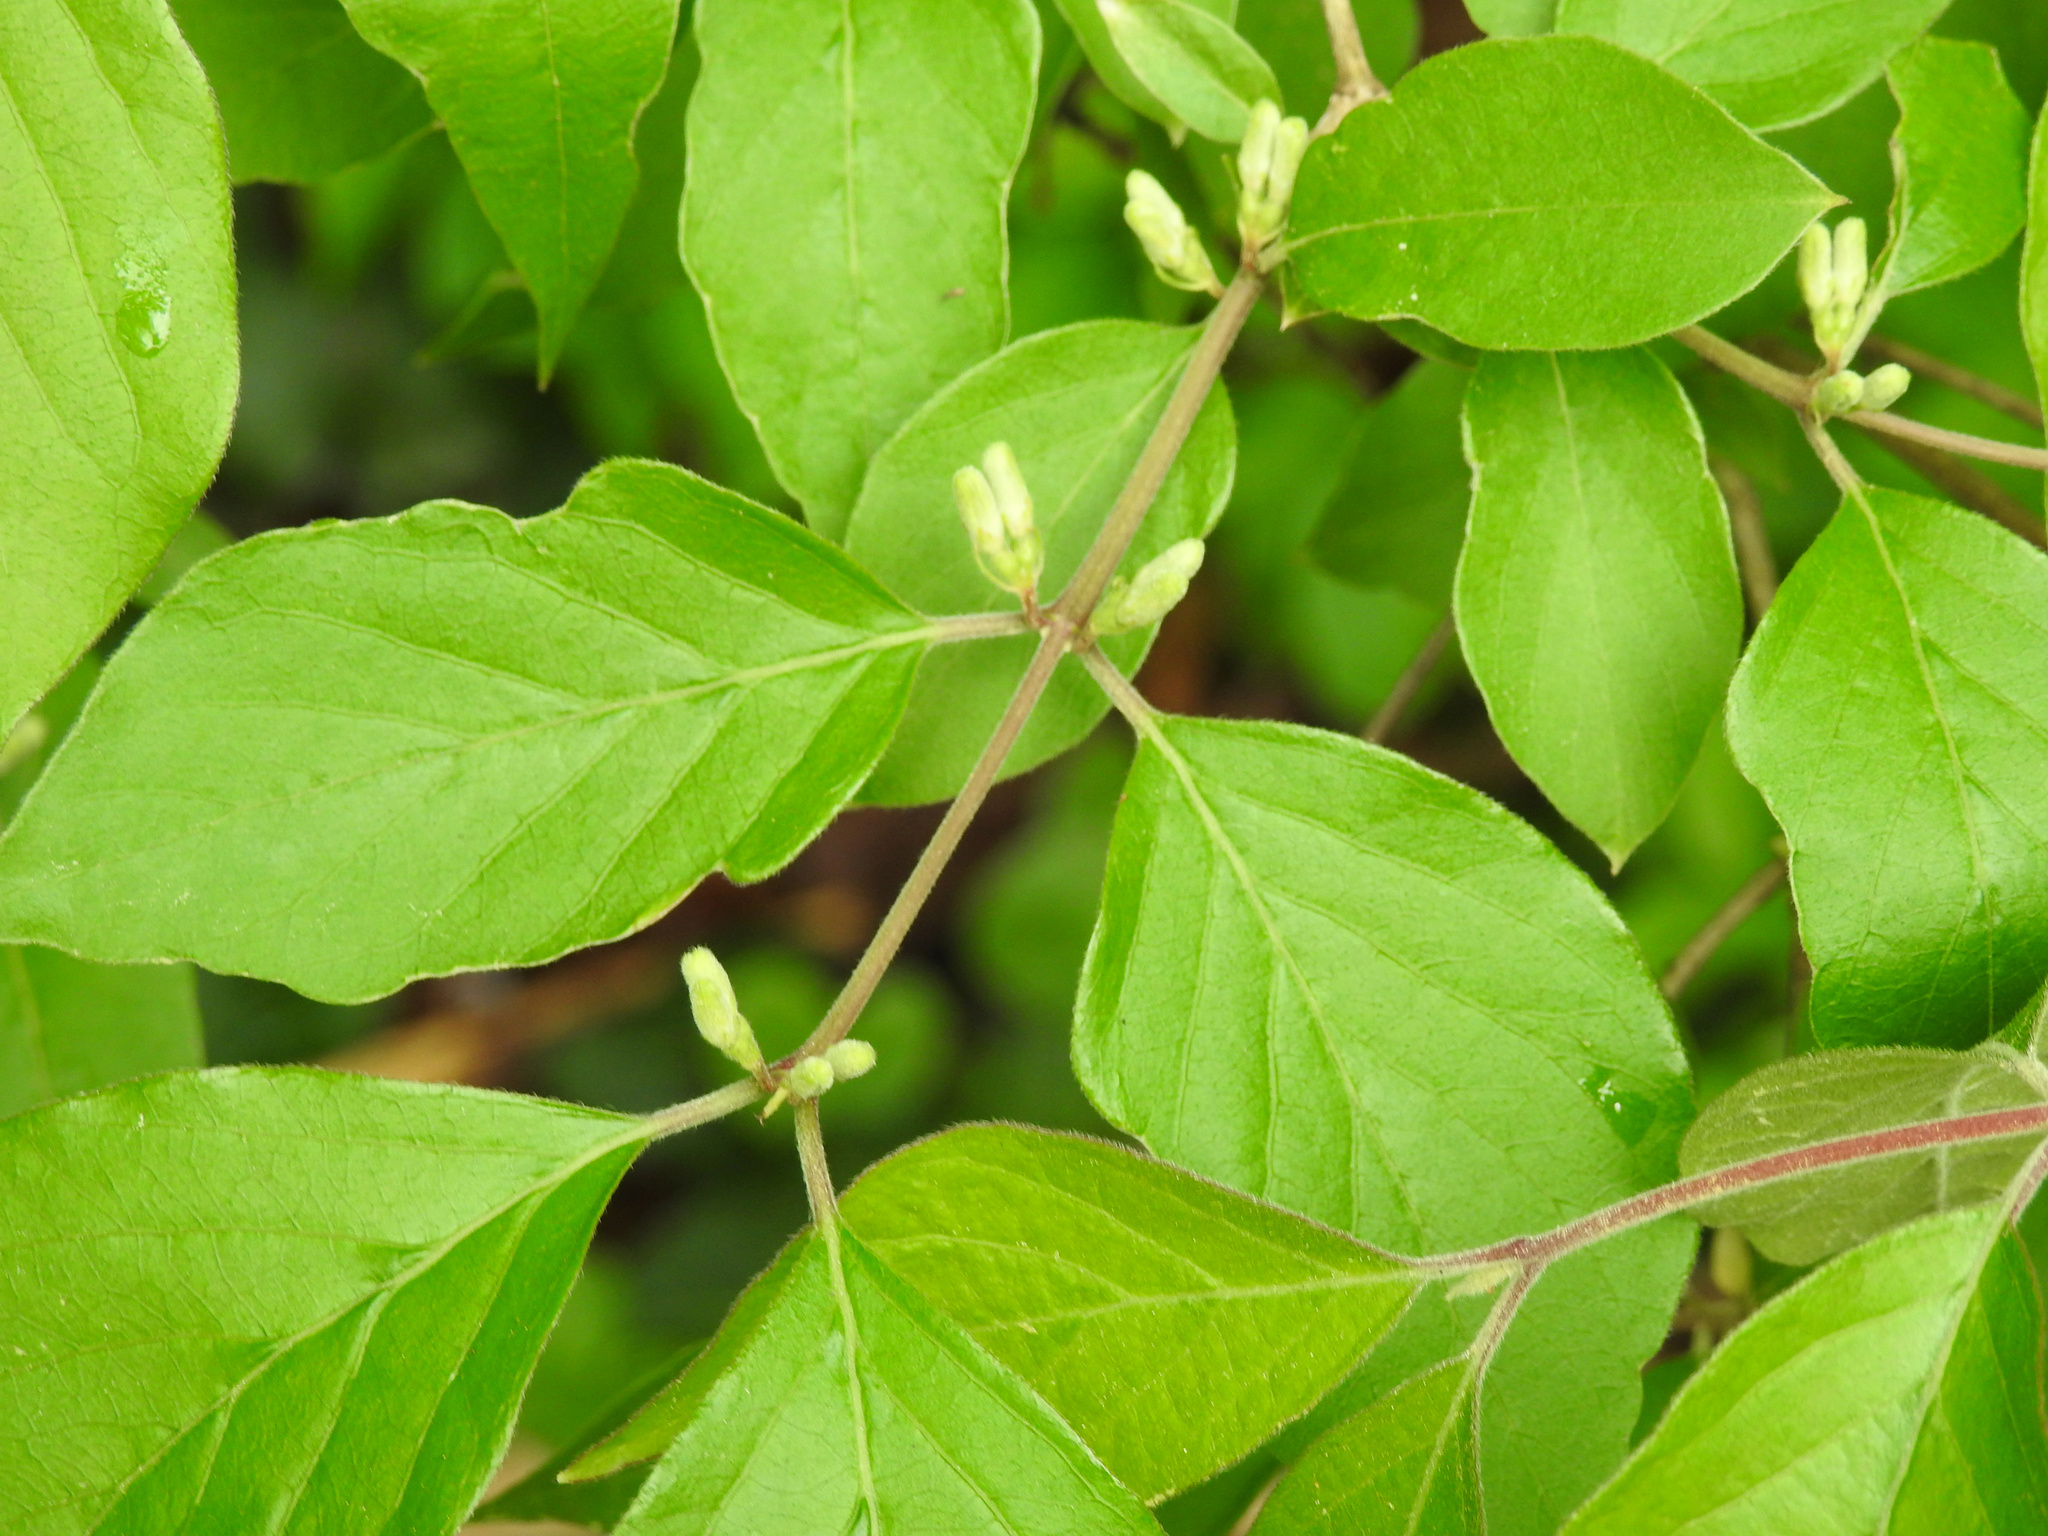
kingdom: Plantae
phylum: Tracheophyta
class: Magnoliopsida
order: Dipsacales
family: Caprifoliaceae
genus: Lonicera
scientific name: Lonicera maackii
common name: Amur honeysuckle
